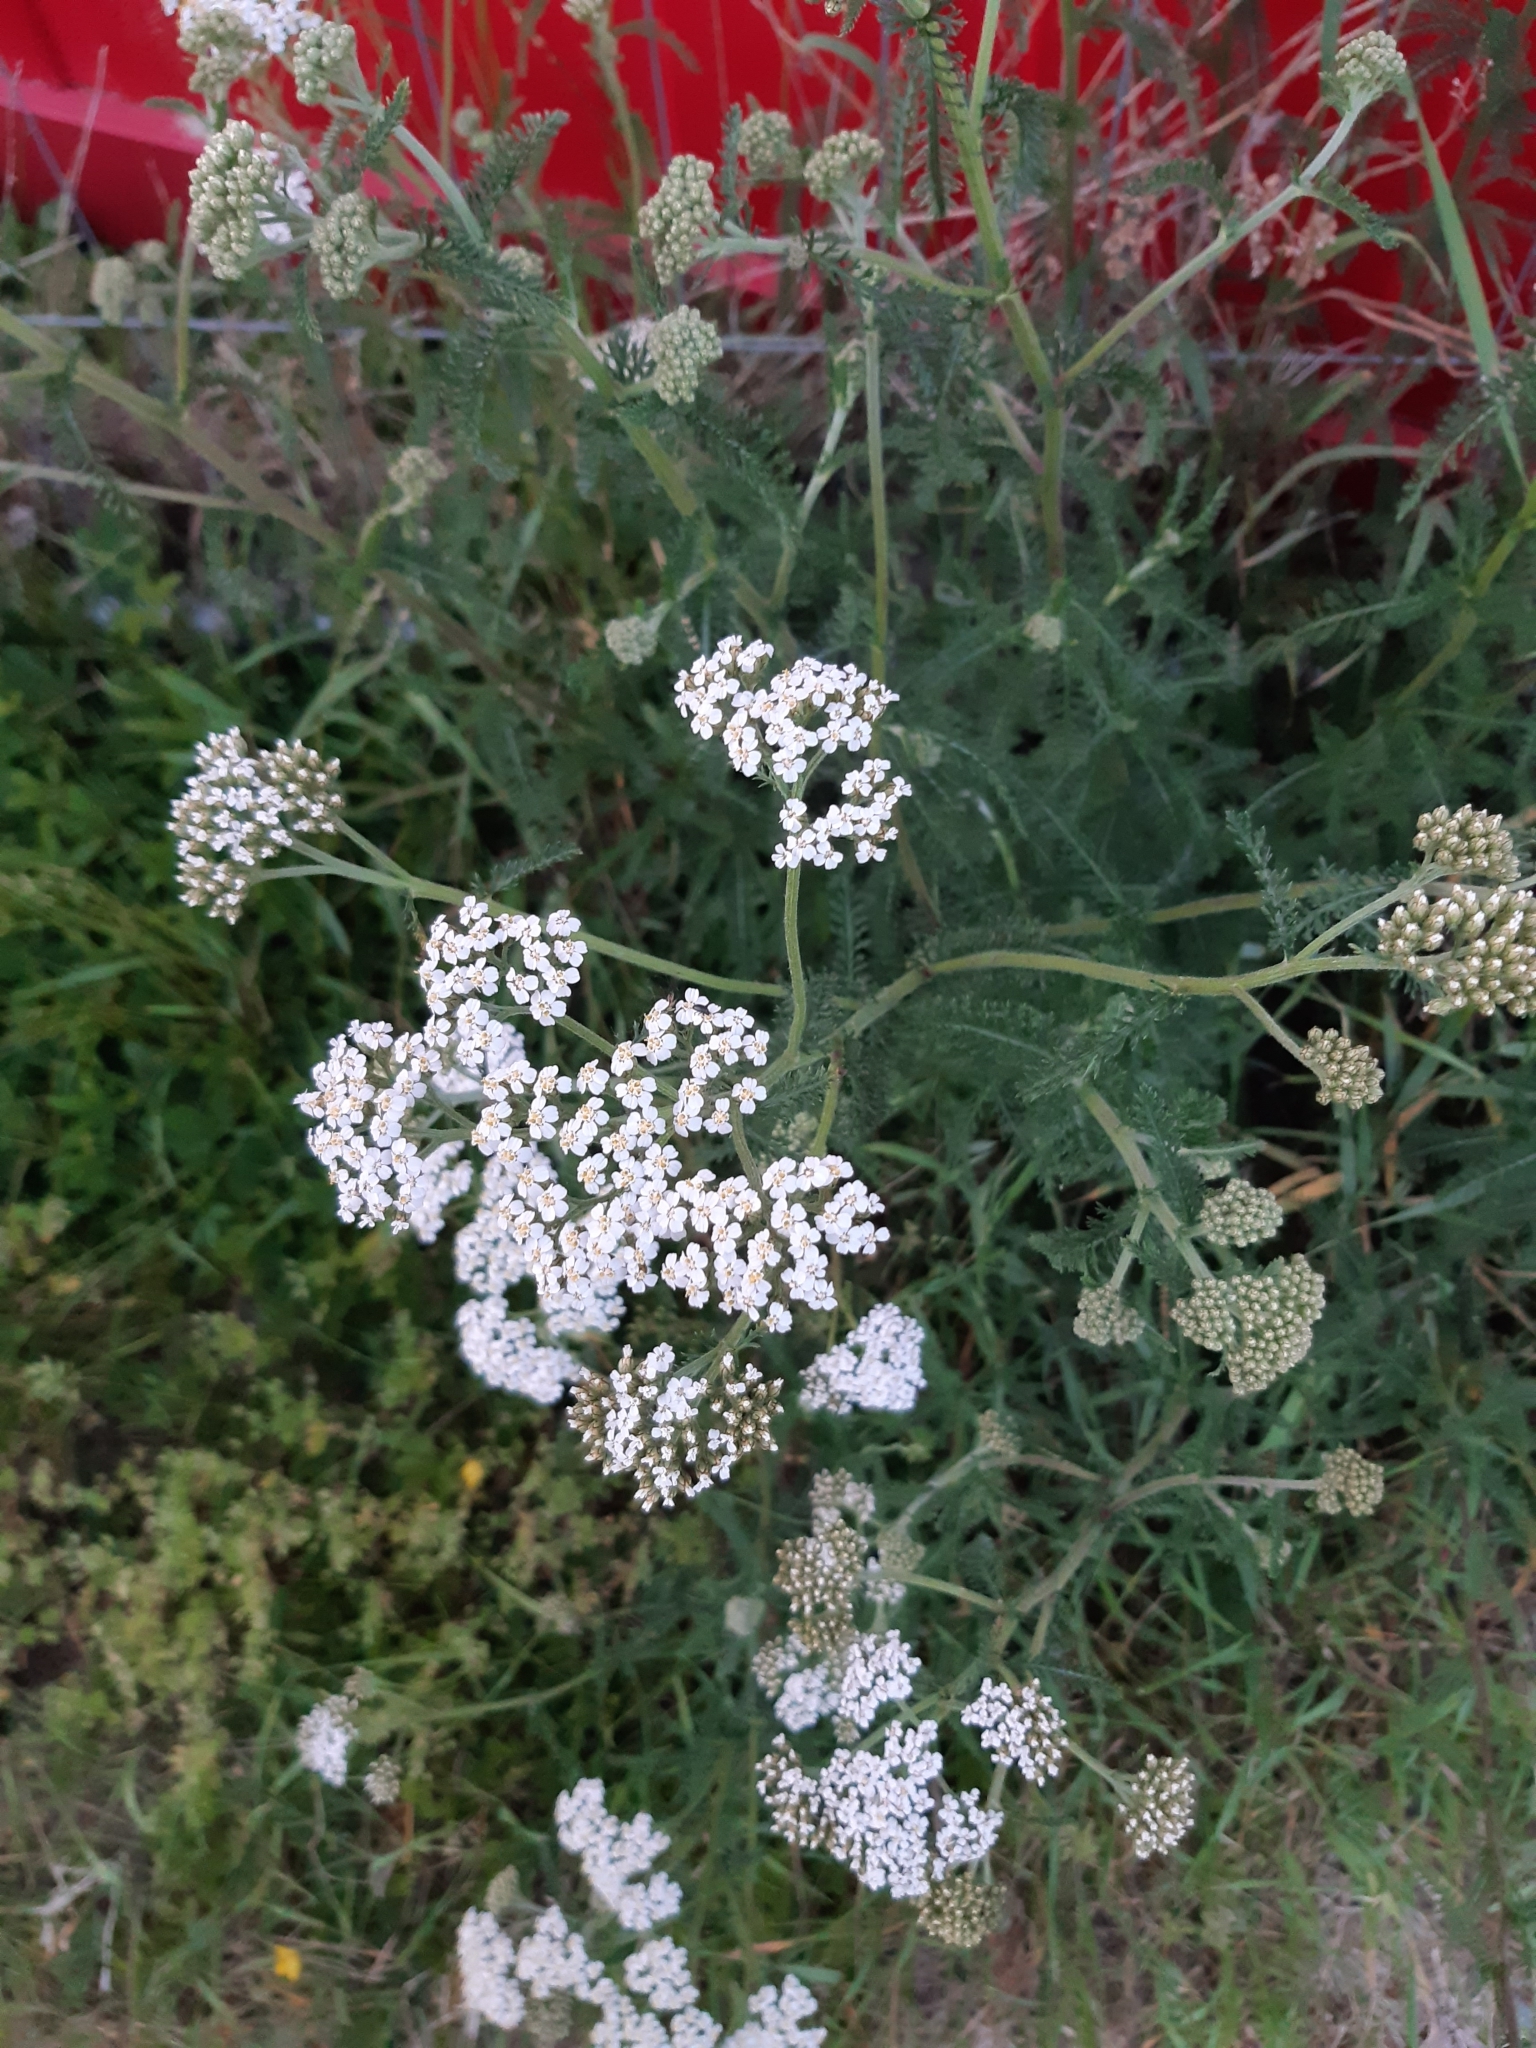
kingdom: Plantae
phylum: Tracheophyta
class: Magnoliopsida
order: Asterales
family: Asteraceae
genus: Achillea
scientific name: Achillea millefolium
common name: Yarrow
